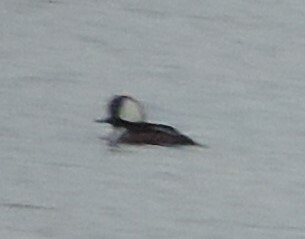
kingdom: Animalia
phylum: Chordata
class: Aves
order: Anseriformes
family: Anatidae
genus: Lophodytes
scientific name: Lophodytes cucullatus
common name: Hooded merganser
